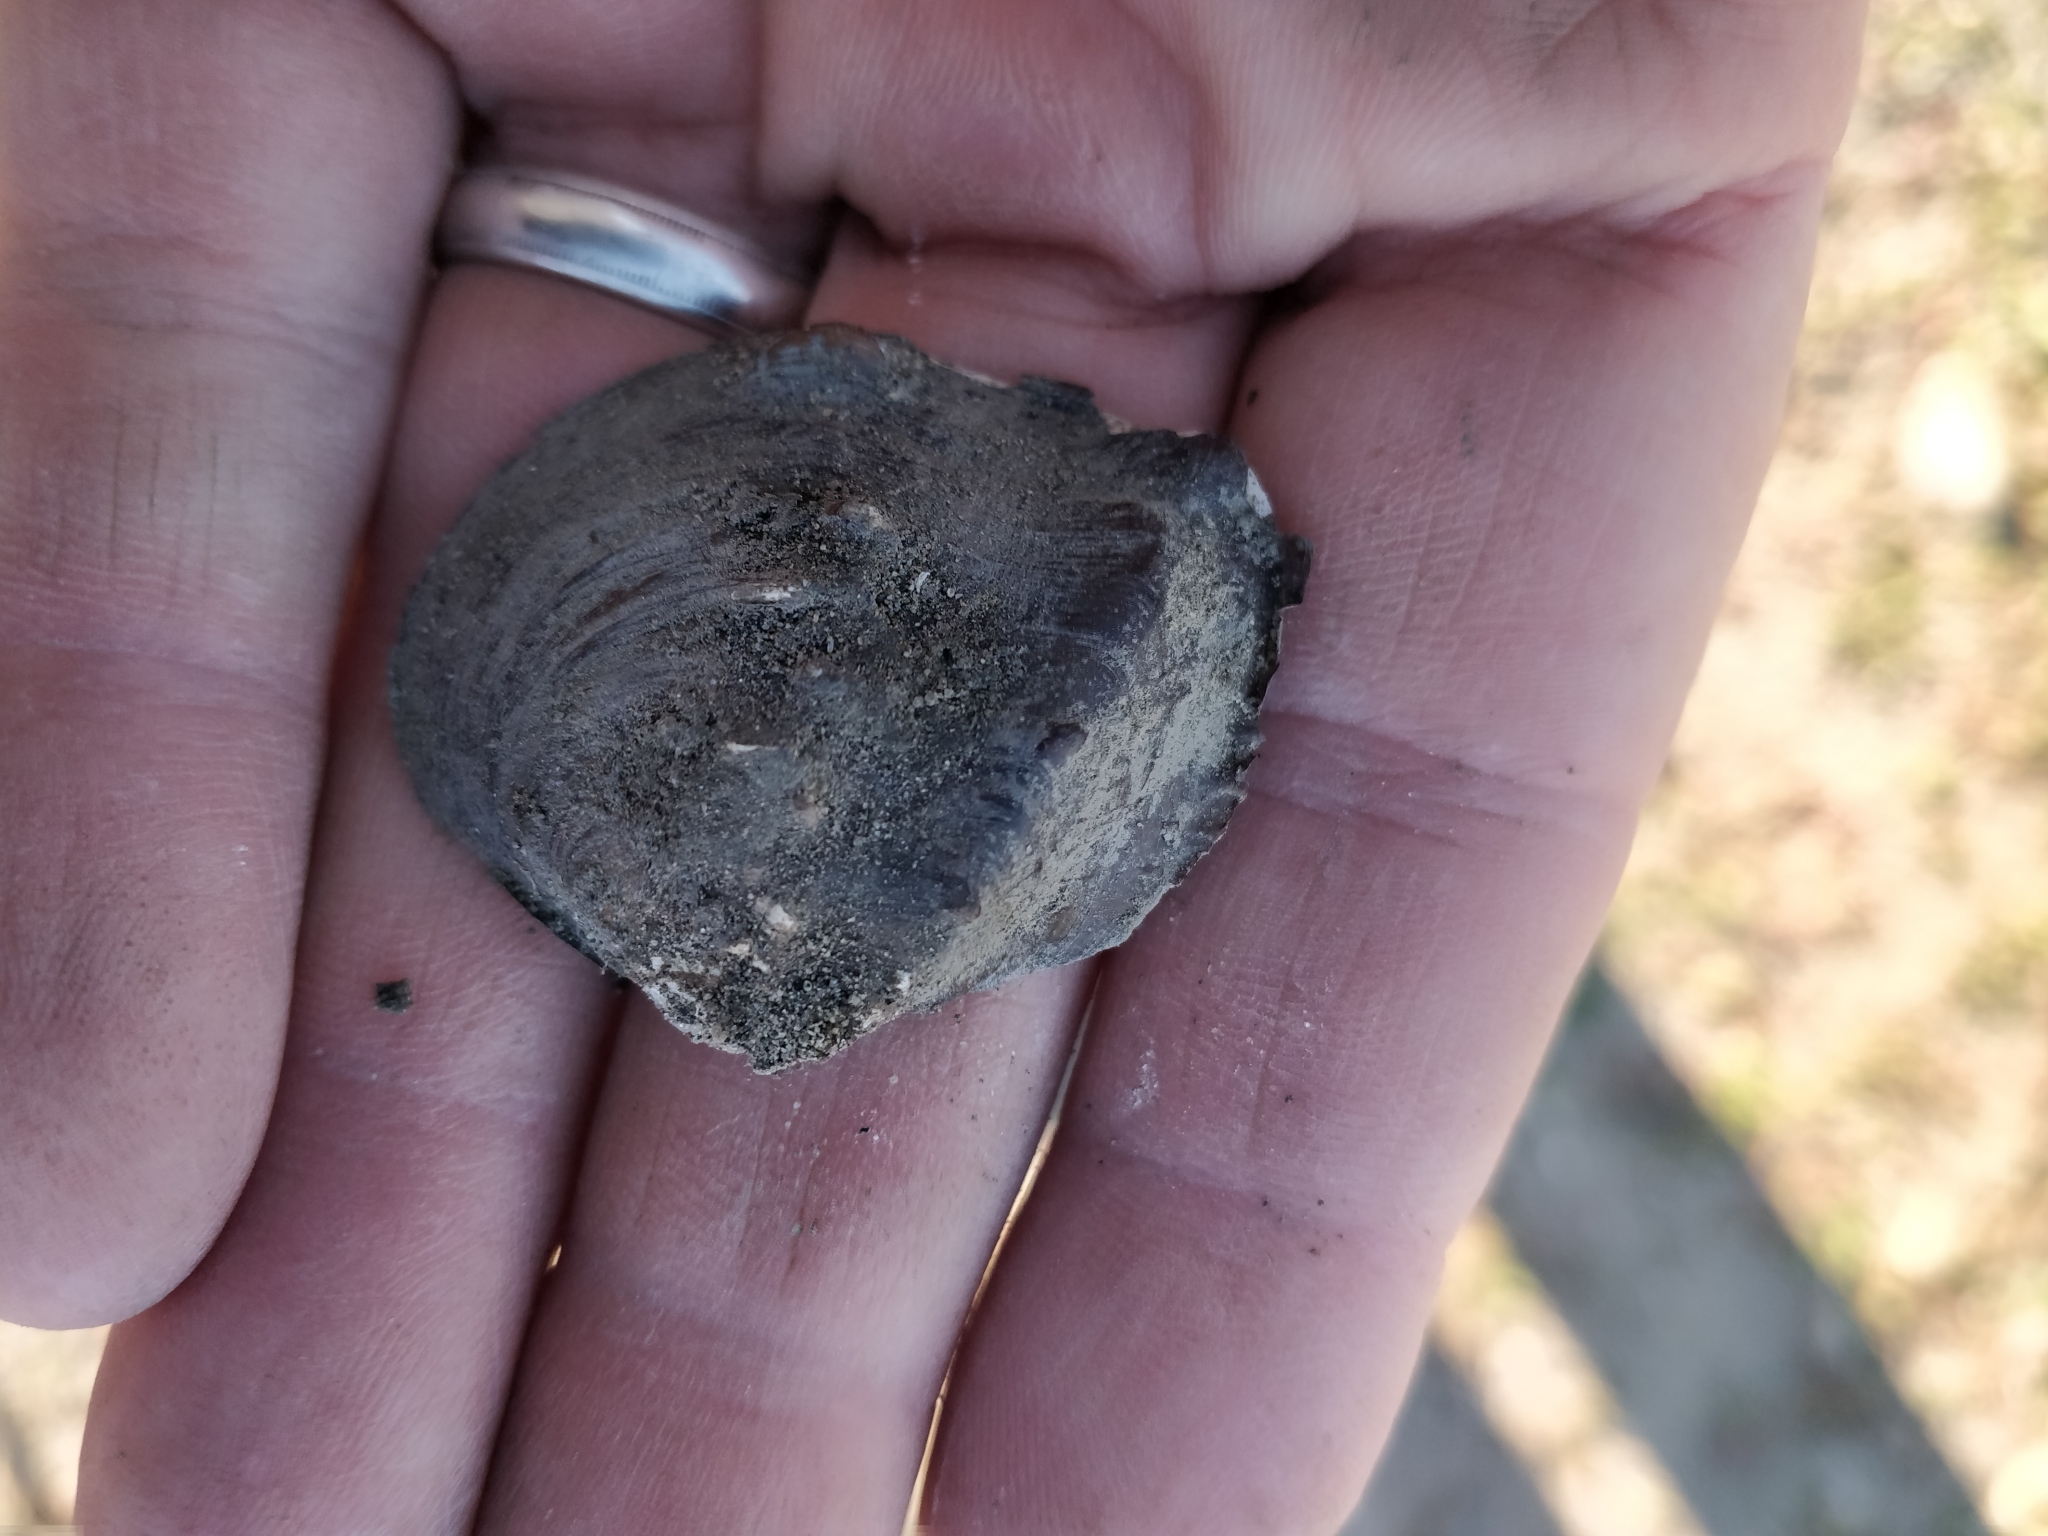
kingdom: Animalia
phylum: Mollusca
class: Bivalvia
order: Unionida
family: Unionidae
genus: Quadrula
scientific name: Quadrula quadrula
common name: Mapleleaf
